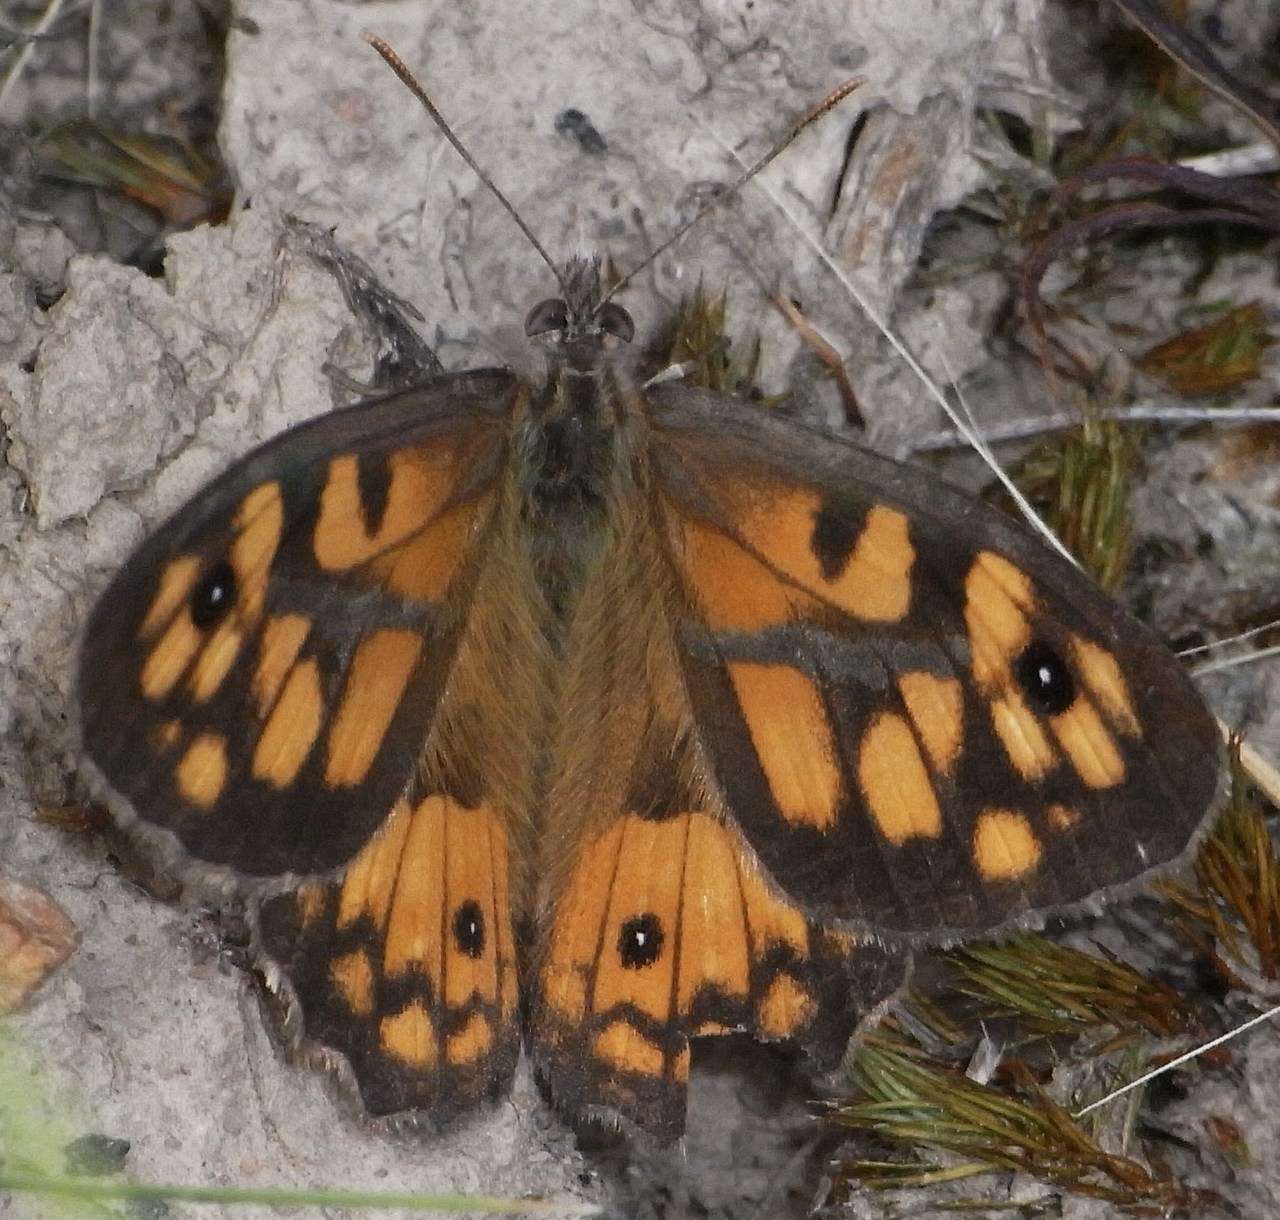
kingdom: Animalia
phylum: Arthropoda
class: Insecta
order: Lepidoptera
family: Nymphalidae
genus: Geitoneura
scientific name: Geitoneura klugii
